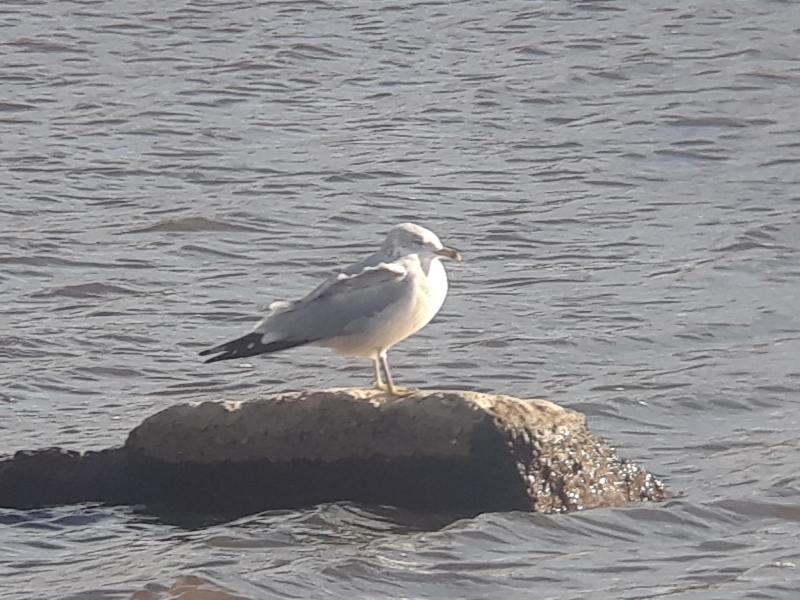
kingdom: Animalia
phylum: Chordata
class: Aves
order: Charadriiformes
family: Laridae
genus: Larus
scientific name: Larus delawarensis
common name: Ring-billed gull
